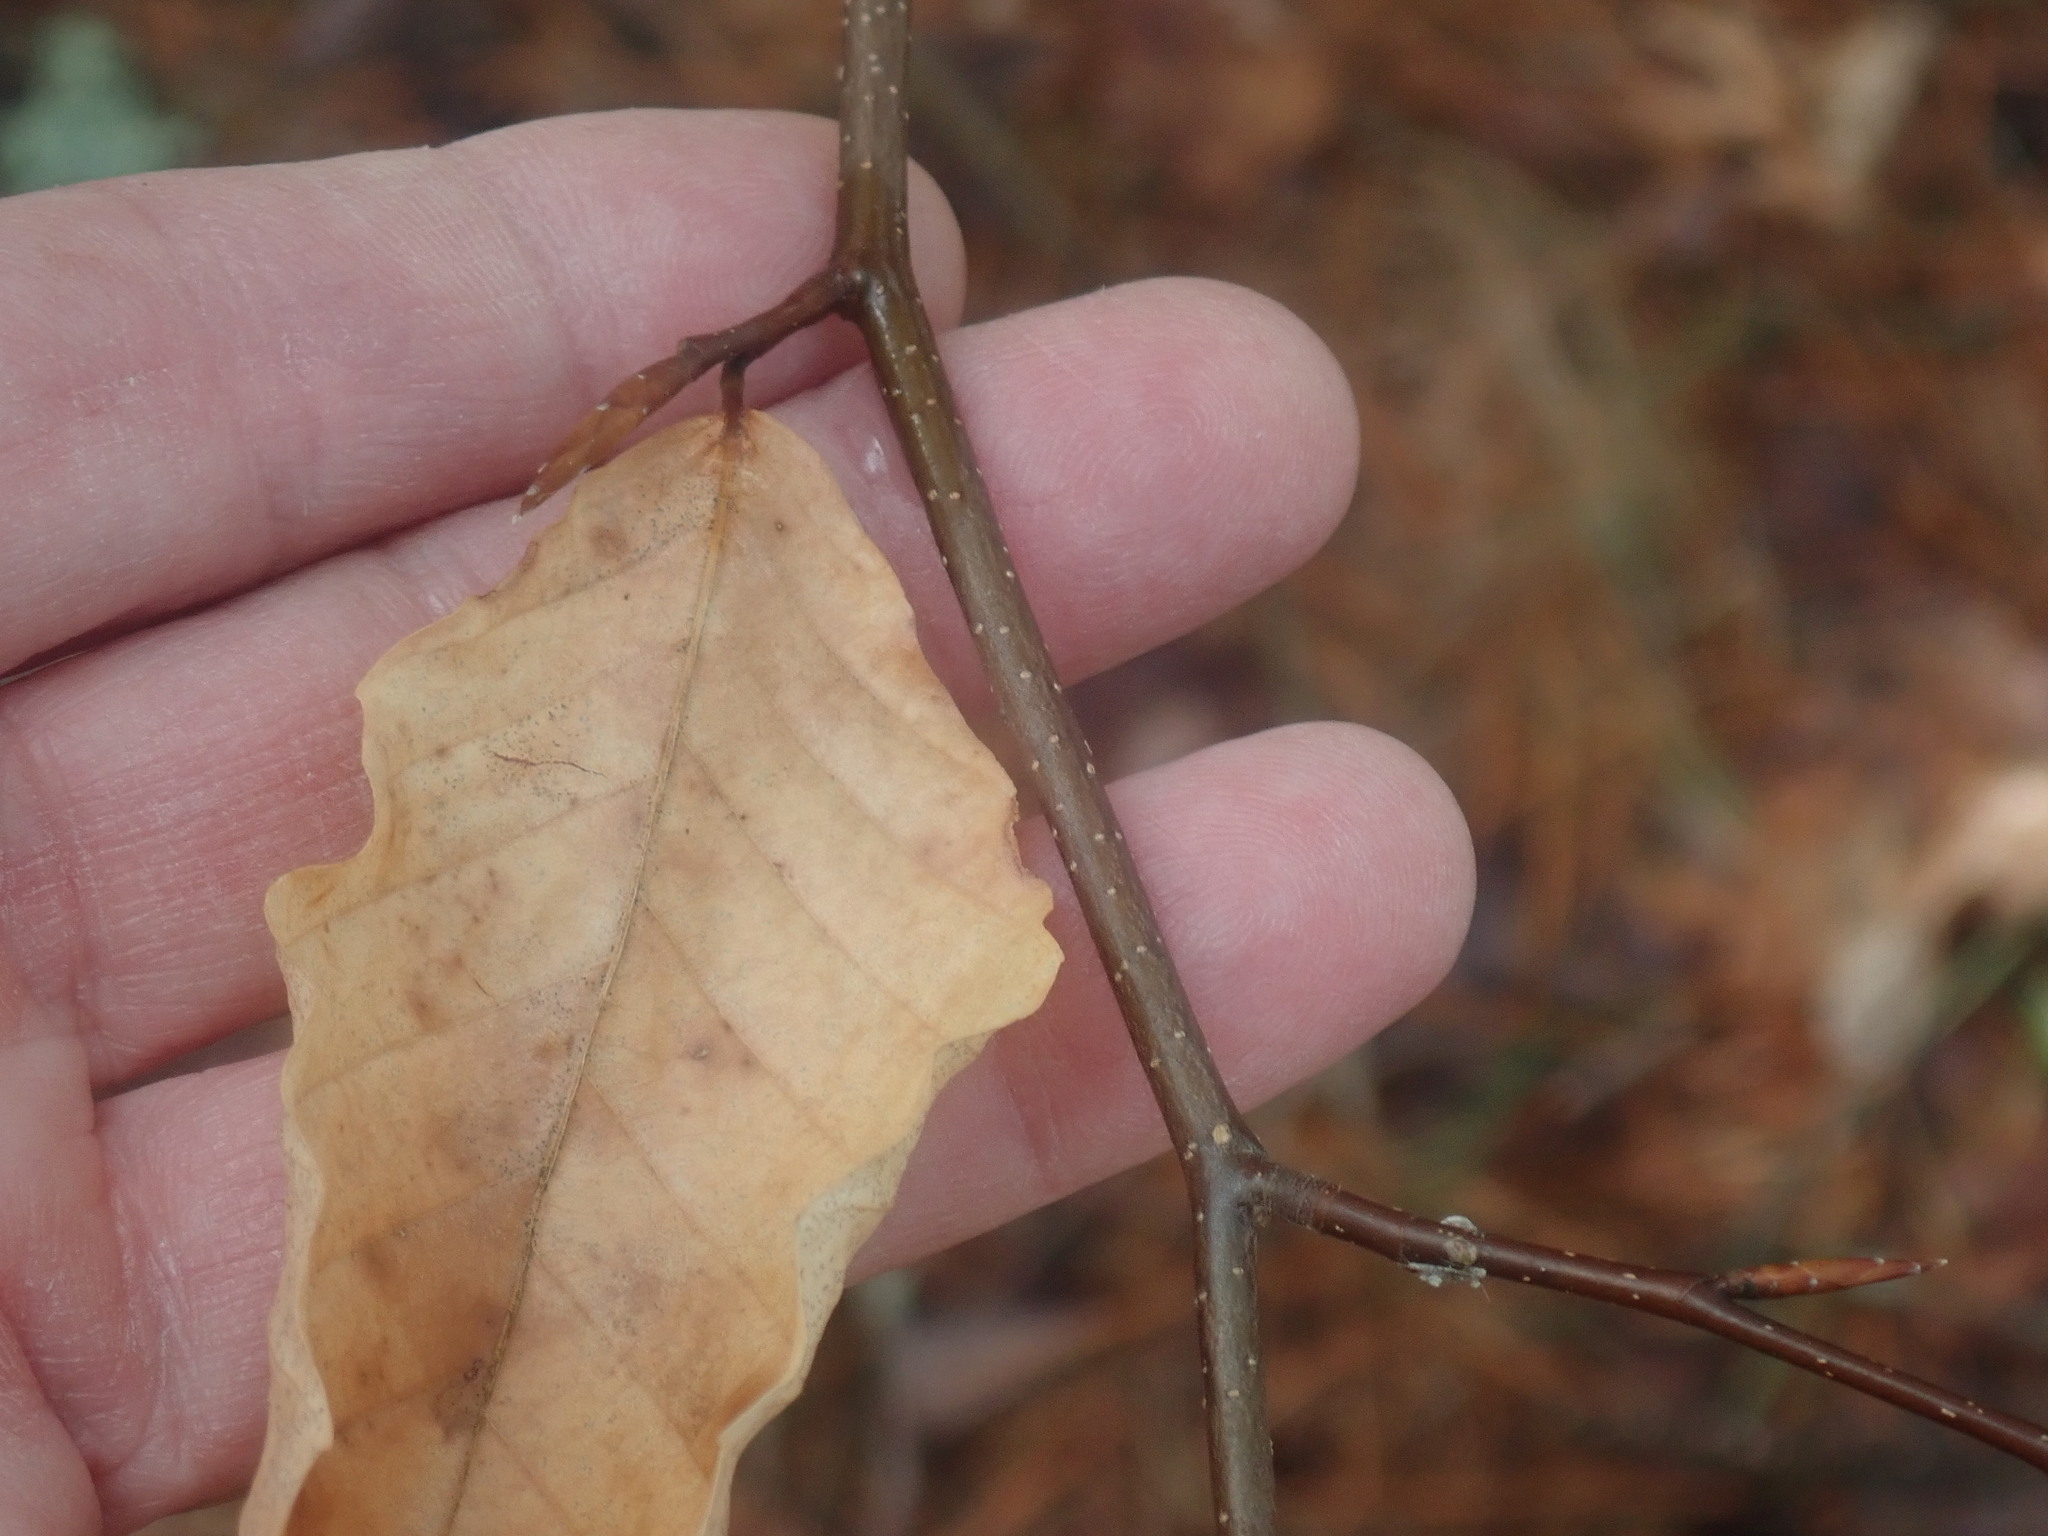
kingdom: Plantae
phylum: Tracheophyta
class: Magnoliopsida
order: Fagales
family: Fagaceae
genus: Fagus
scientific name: Fagus grandifolia
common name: American beech
